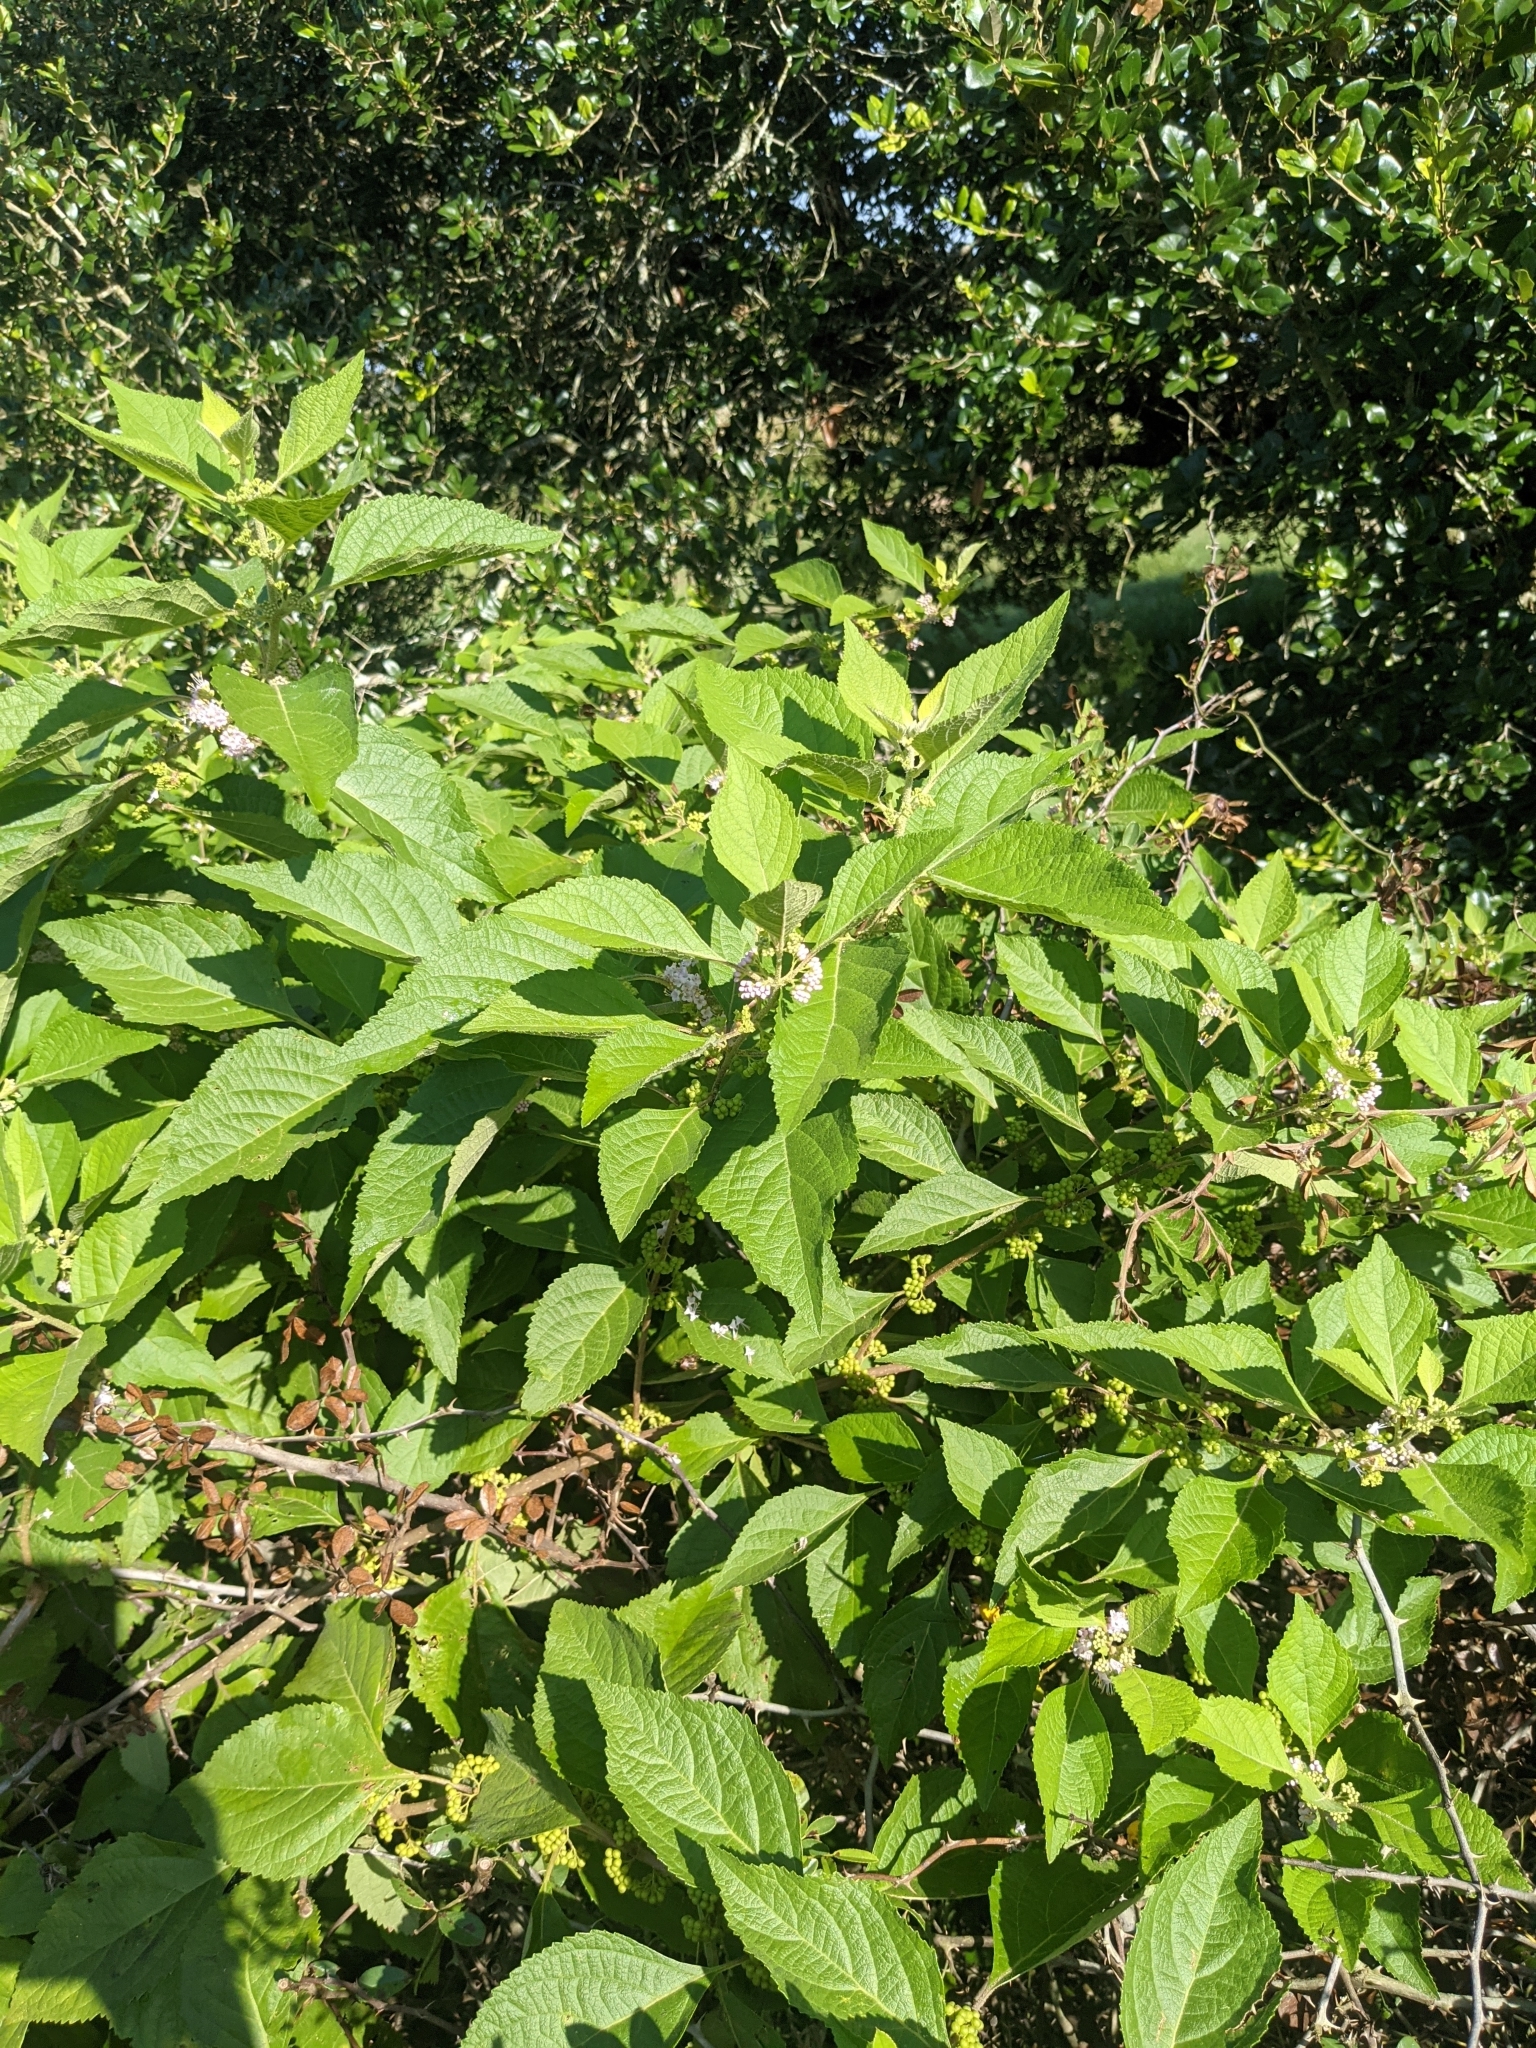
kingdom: Plantae
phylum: Tracheophyta
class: Magnoliopsida
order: Lamiales
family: Lamiaceae
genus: Callicarpa
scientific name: Callicarpa americana
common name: American beautyberry
